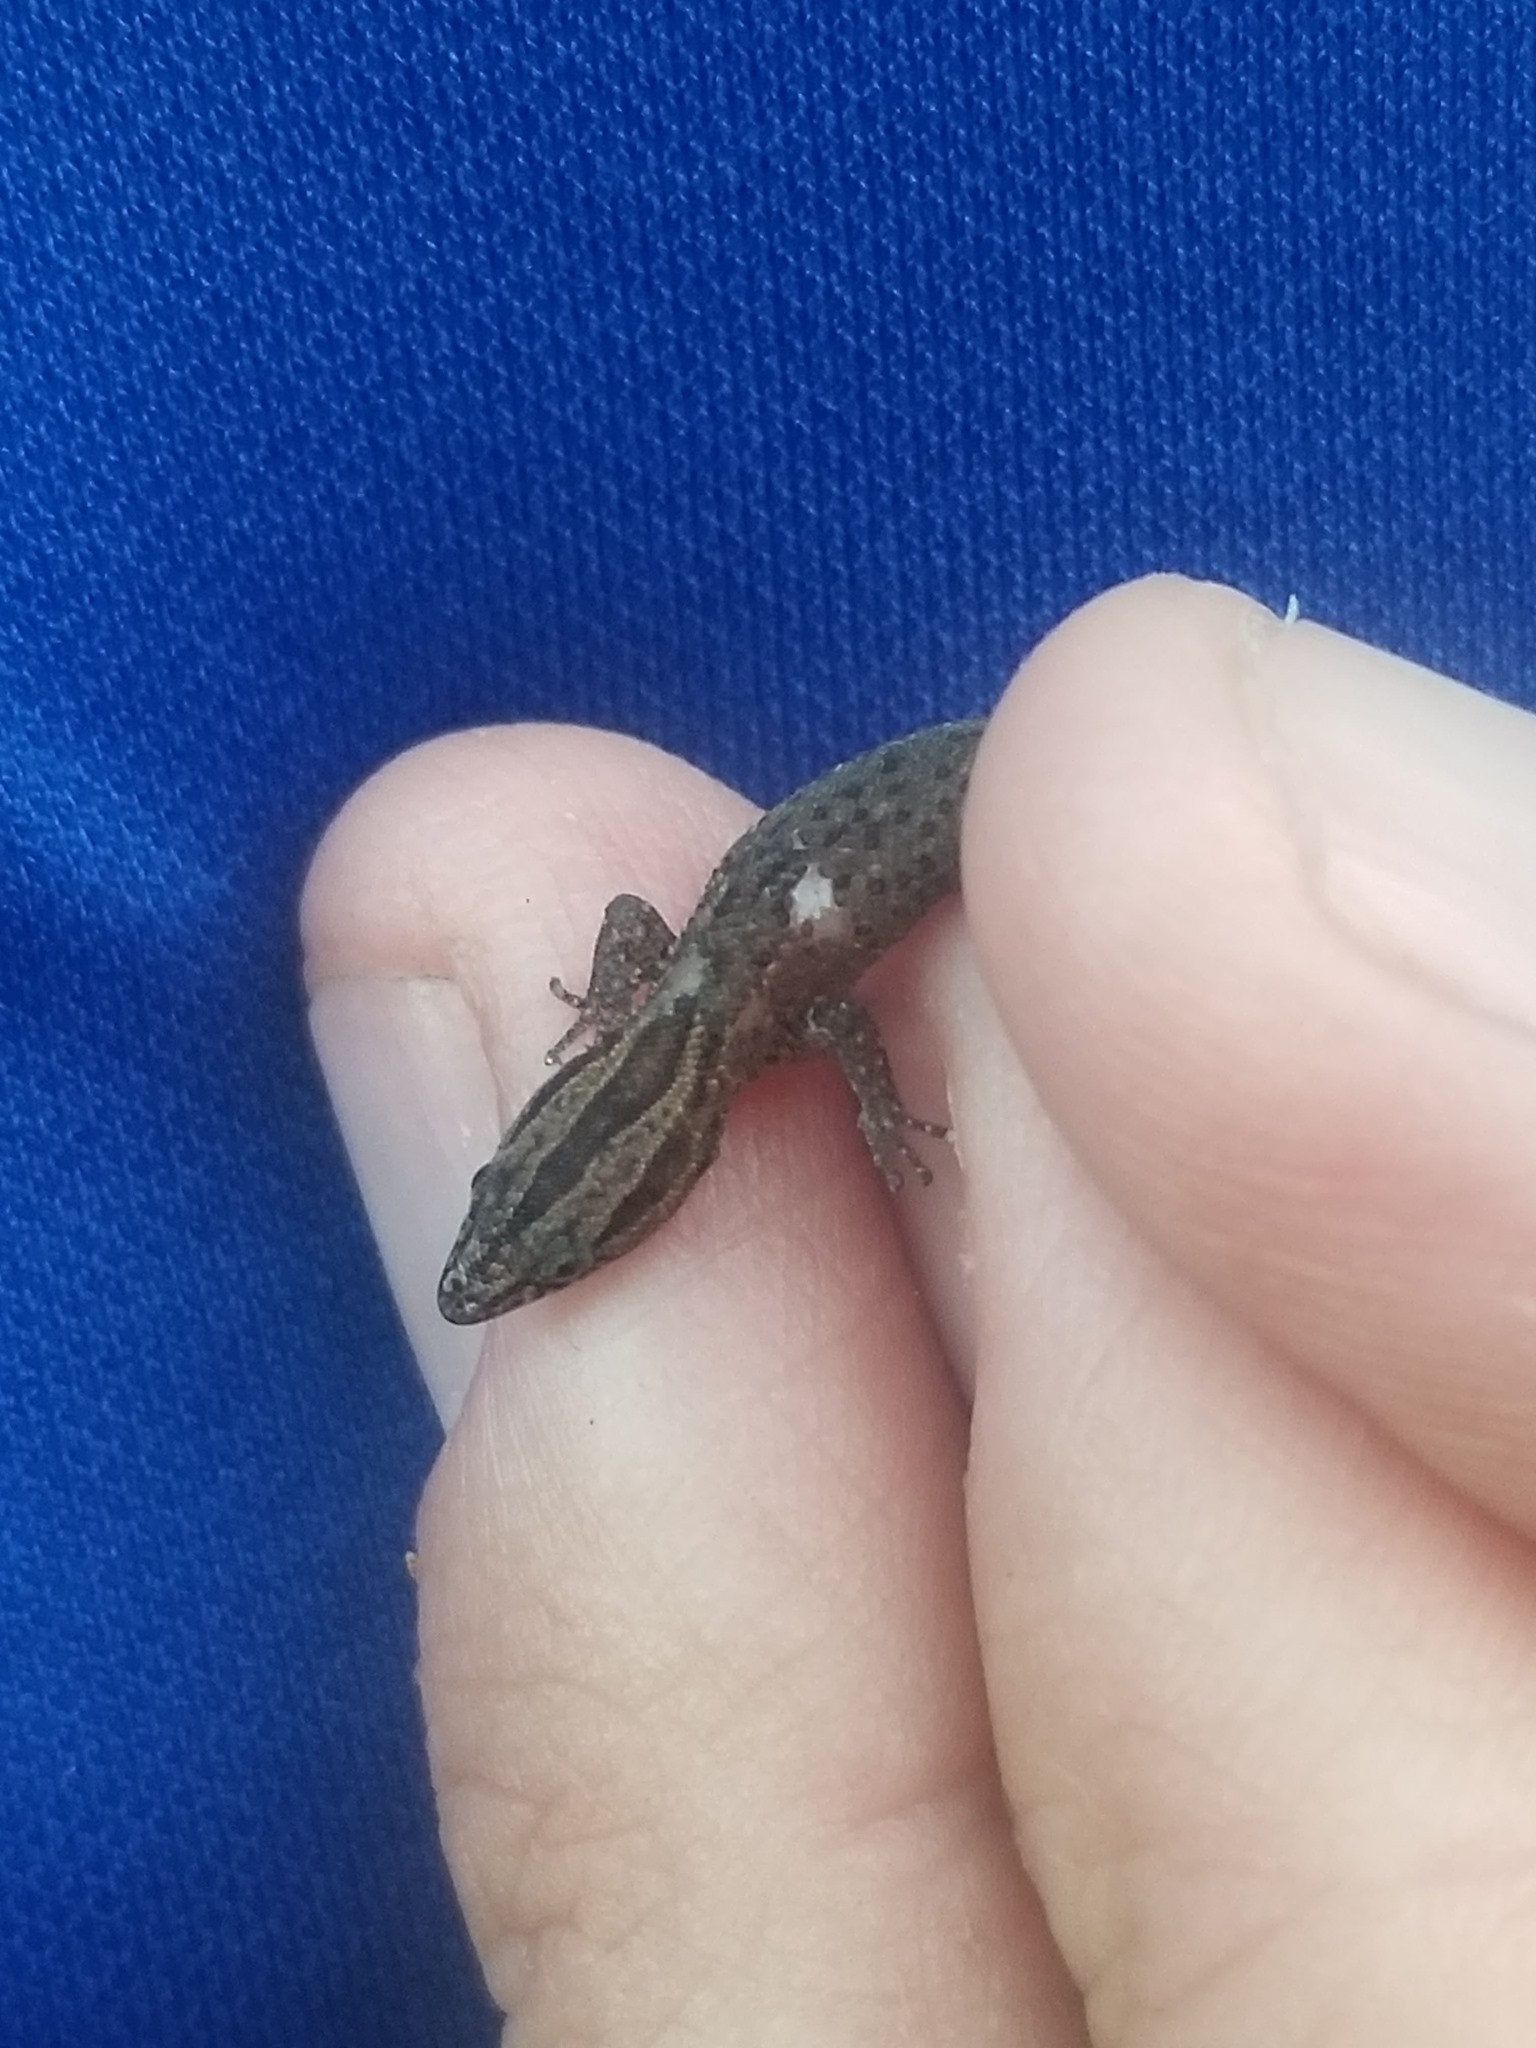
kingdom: Animalia
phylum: Chordata
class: Squamata
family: Sphaerodactylidae
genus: Sphaerodactylus
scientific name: Sphaerodactylus notatus
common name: Brown-speckled sphaero
